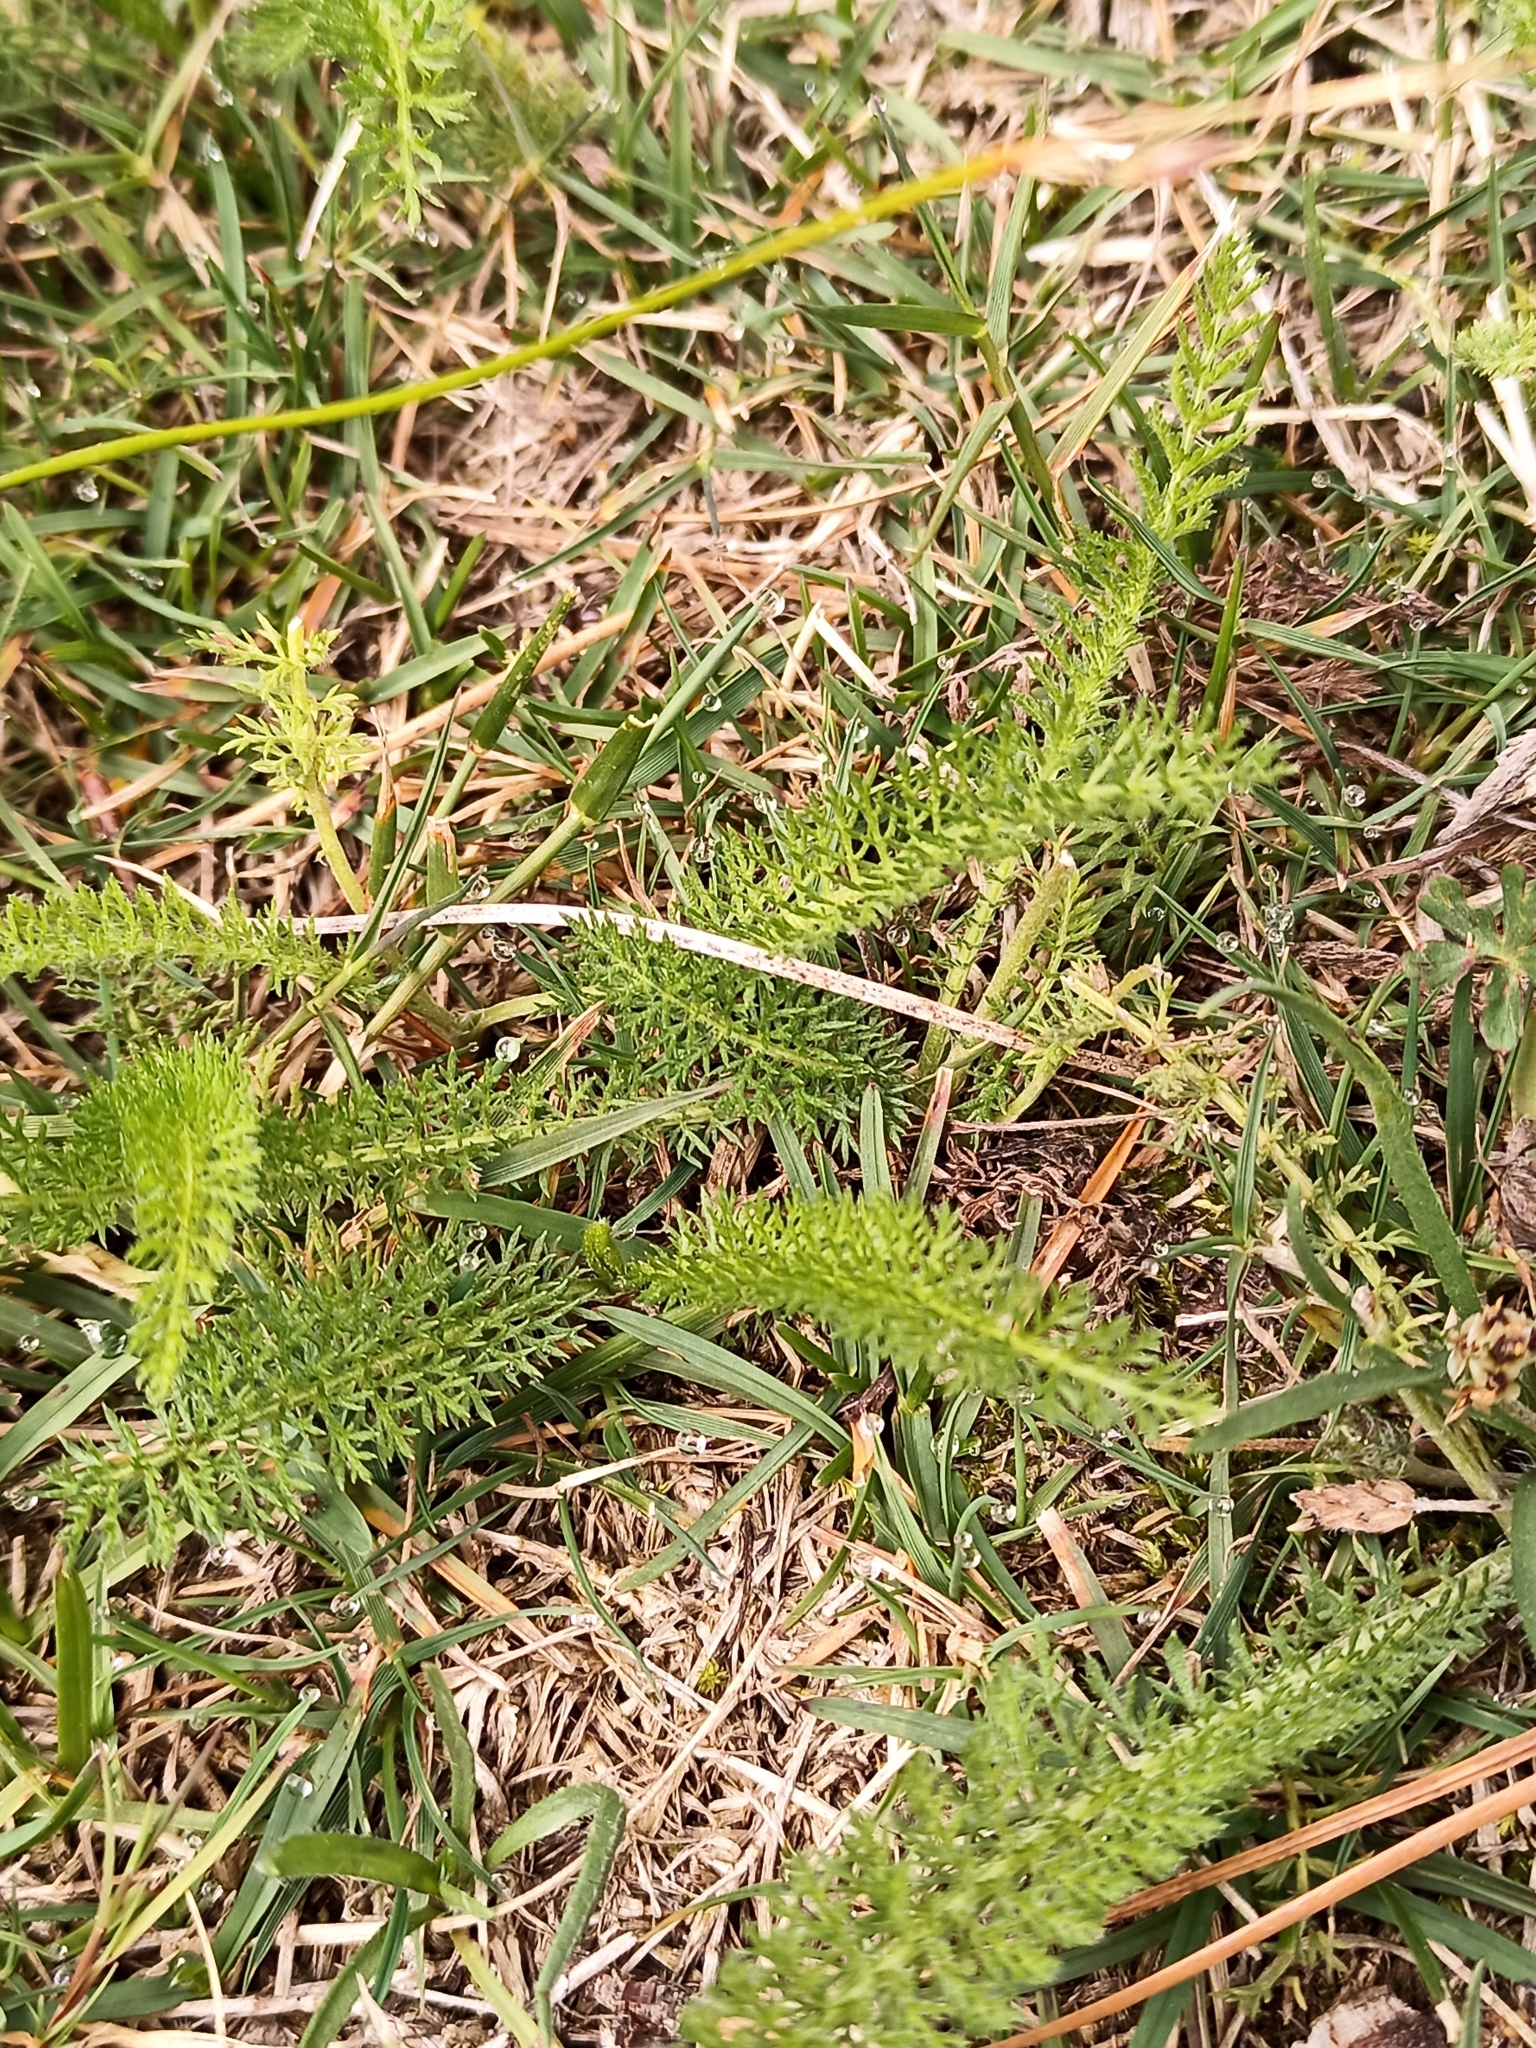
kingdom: Plantae
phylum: Tracheophyta
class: Magnoliopsida
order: Asterales
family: Asteraceae
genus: Achillea
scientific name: Achillea millefolium
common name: Yarrow
